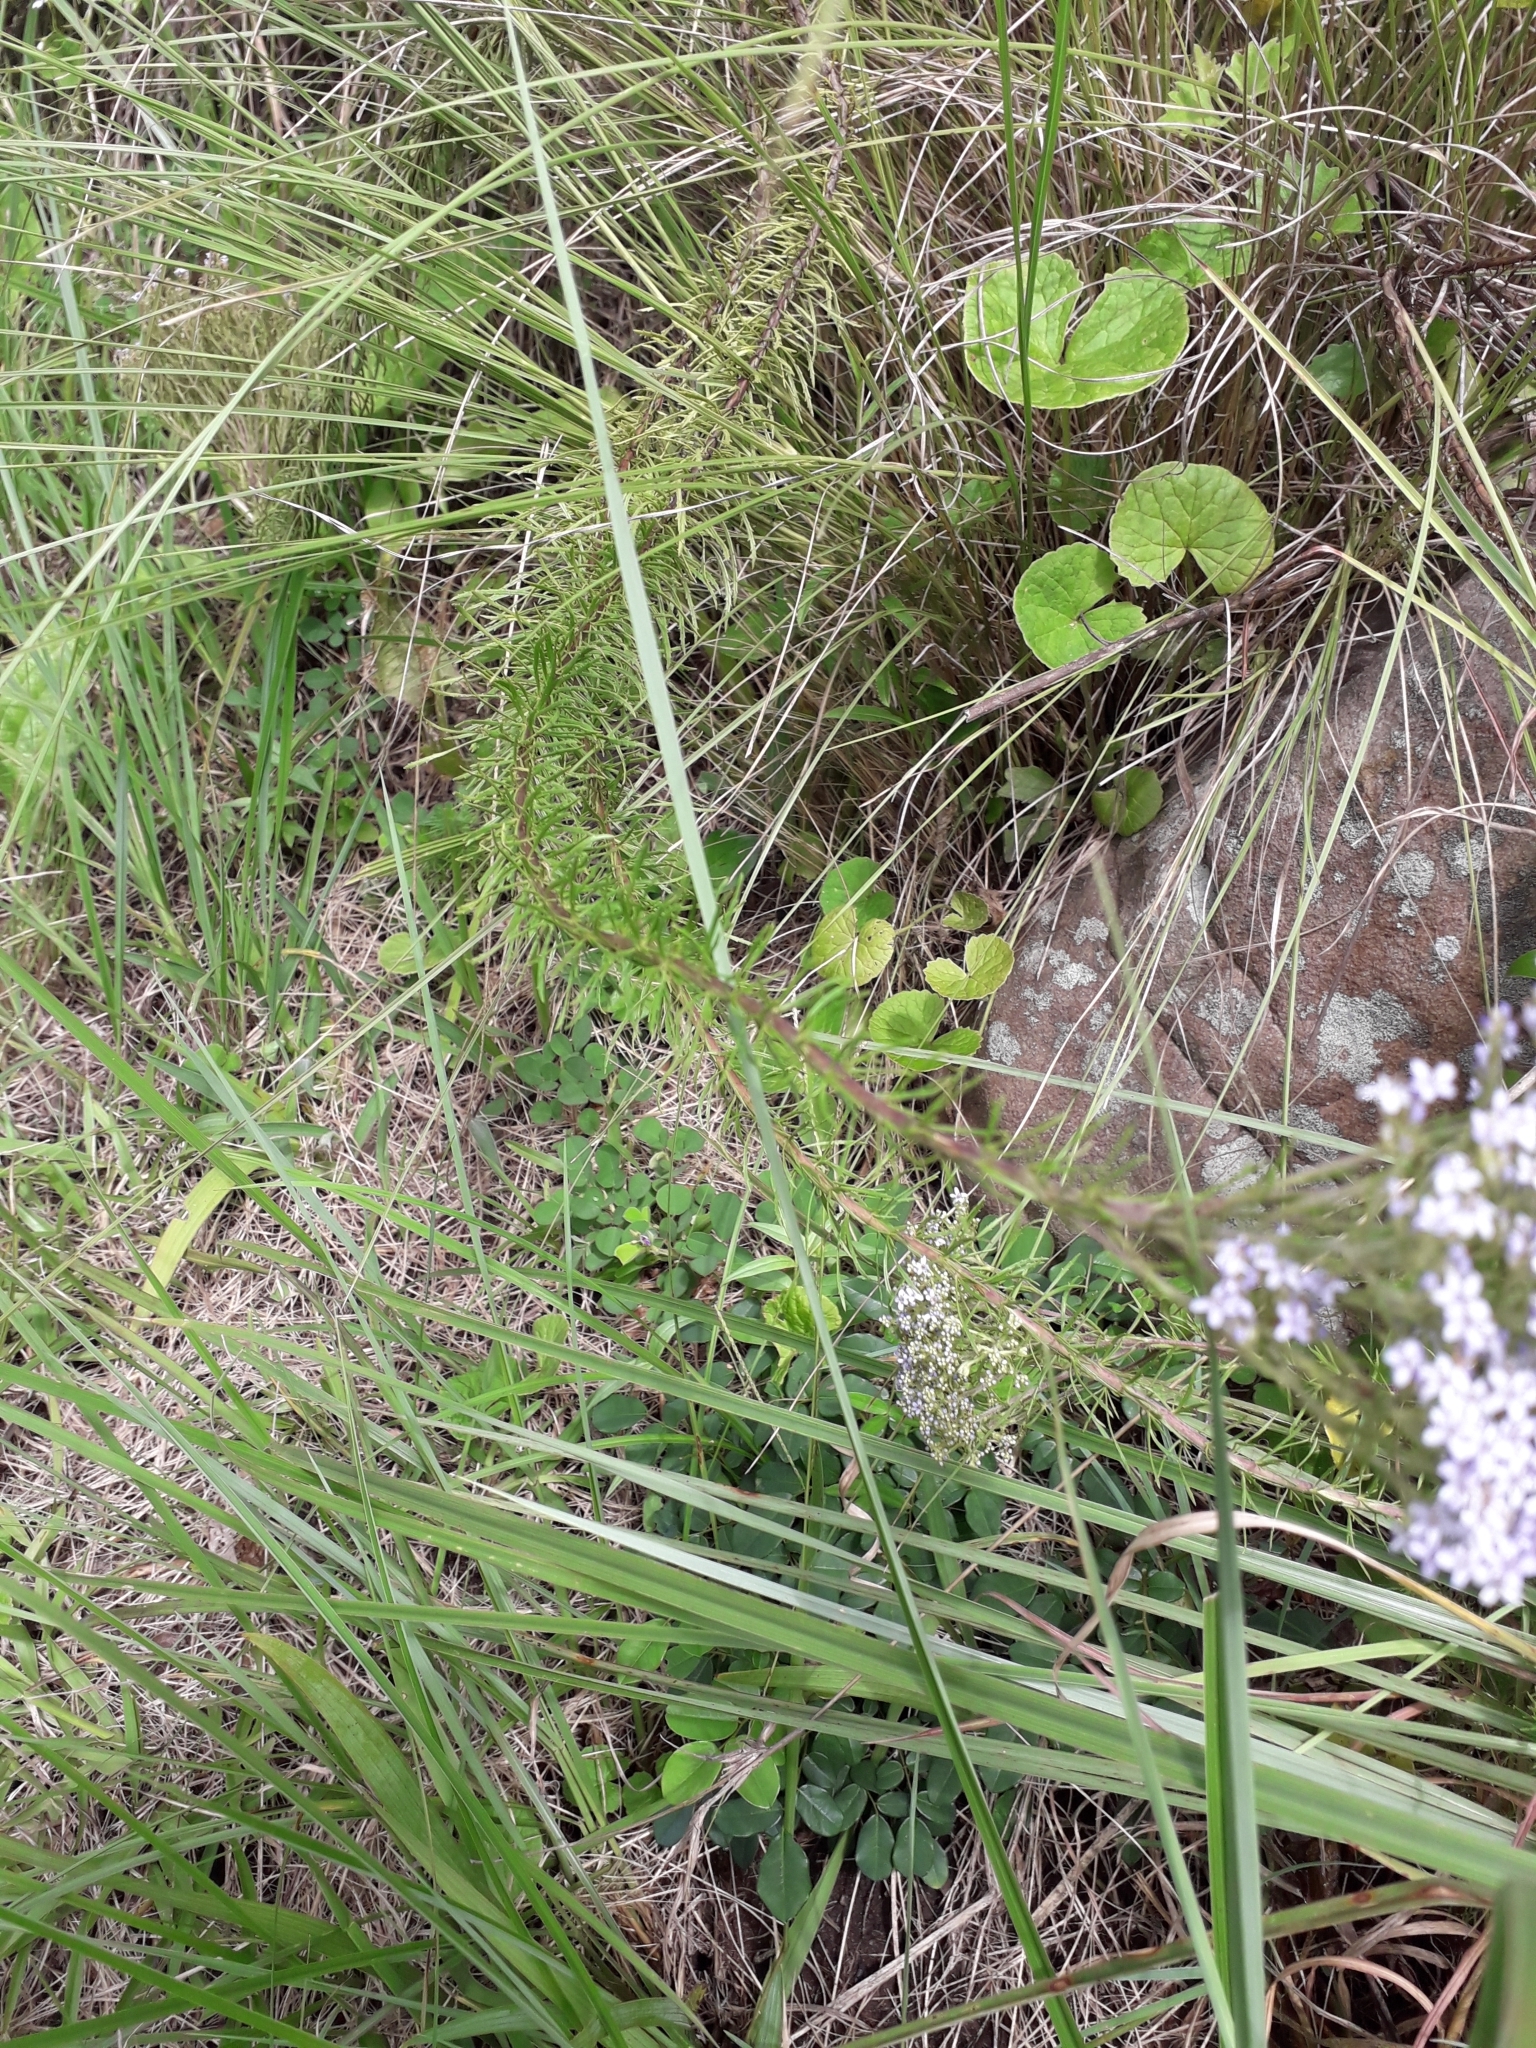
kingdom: Plantae
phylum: Tracheophyta
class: Magnoliopsida
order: Lamiales
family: Scrophulariaceae
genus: Tetraselago
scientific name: Tetraselago natalensis
